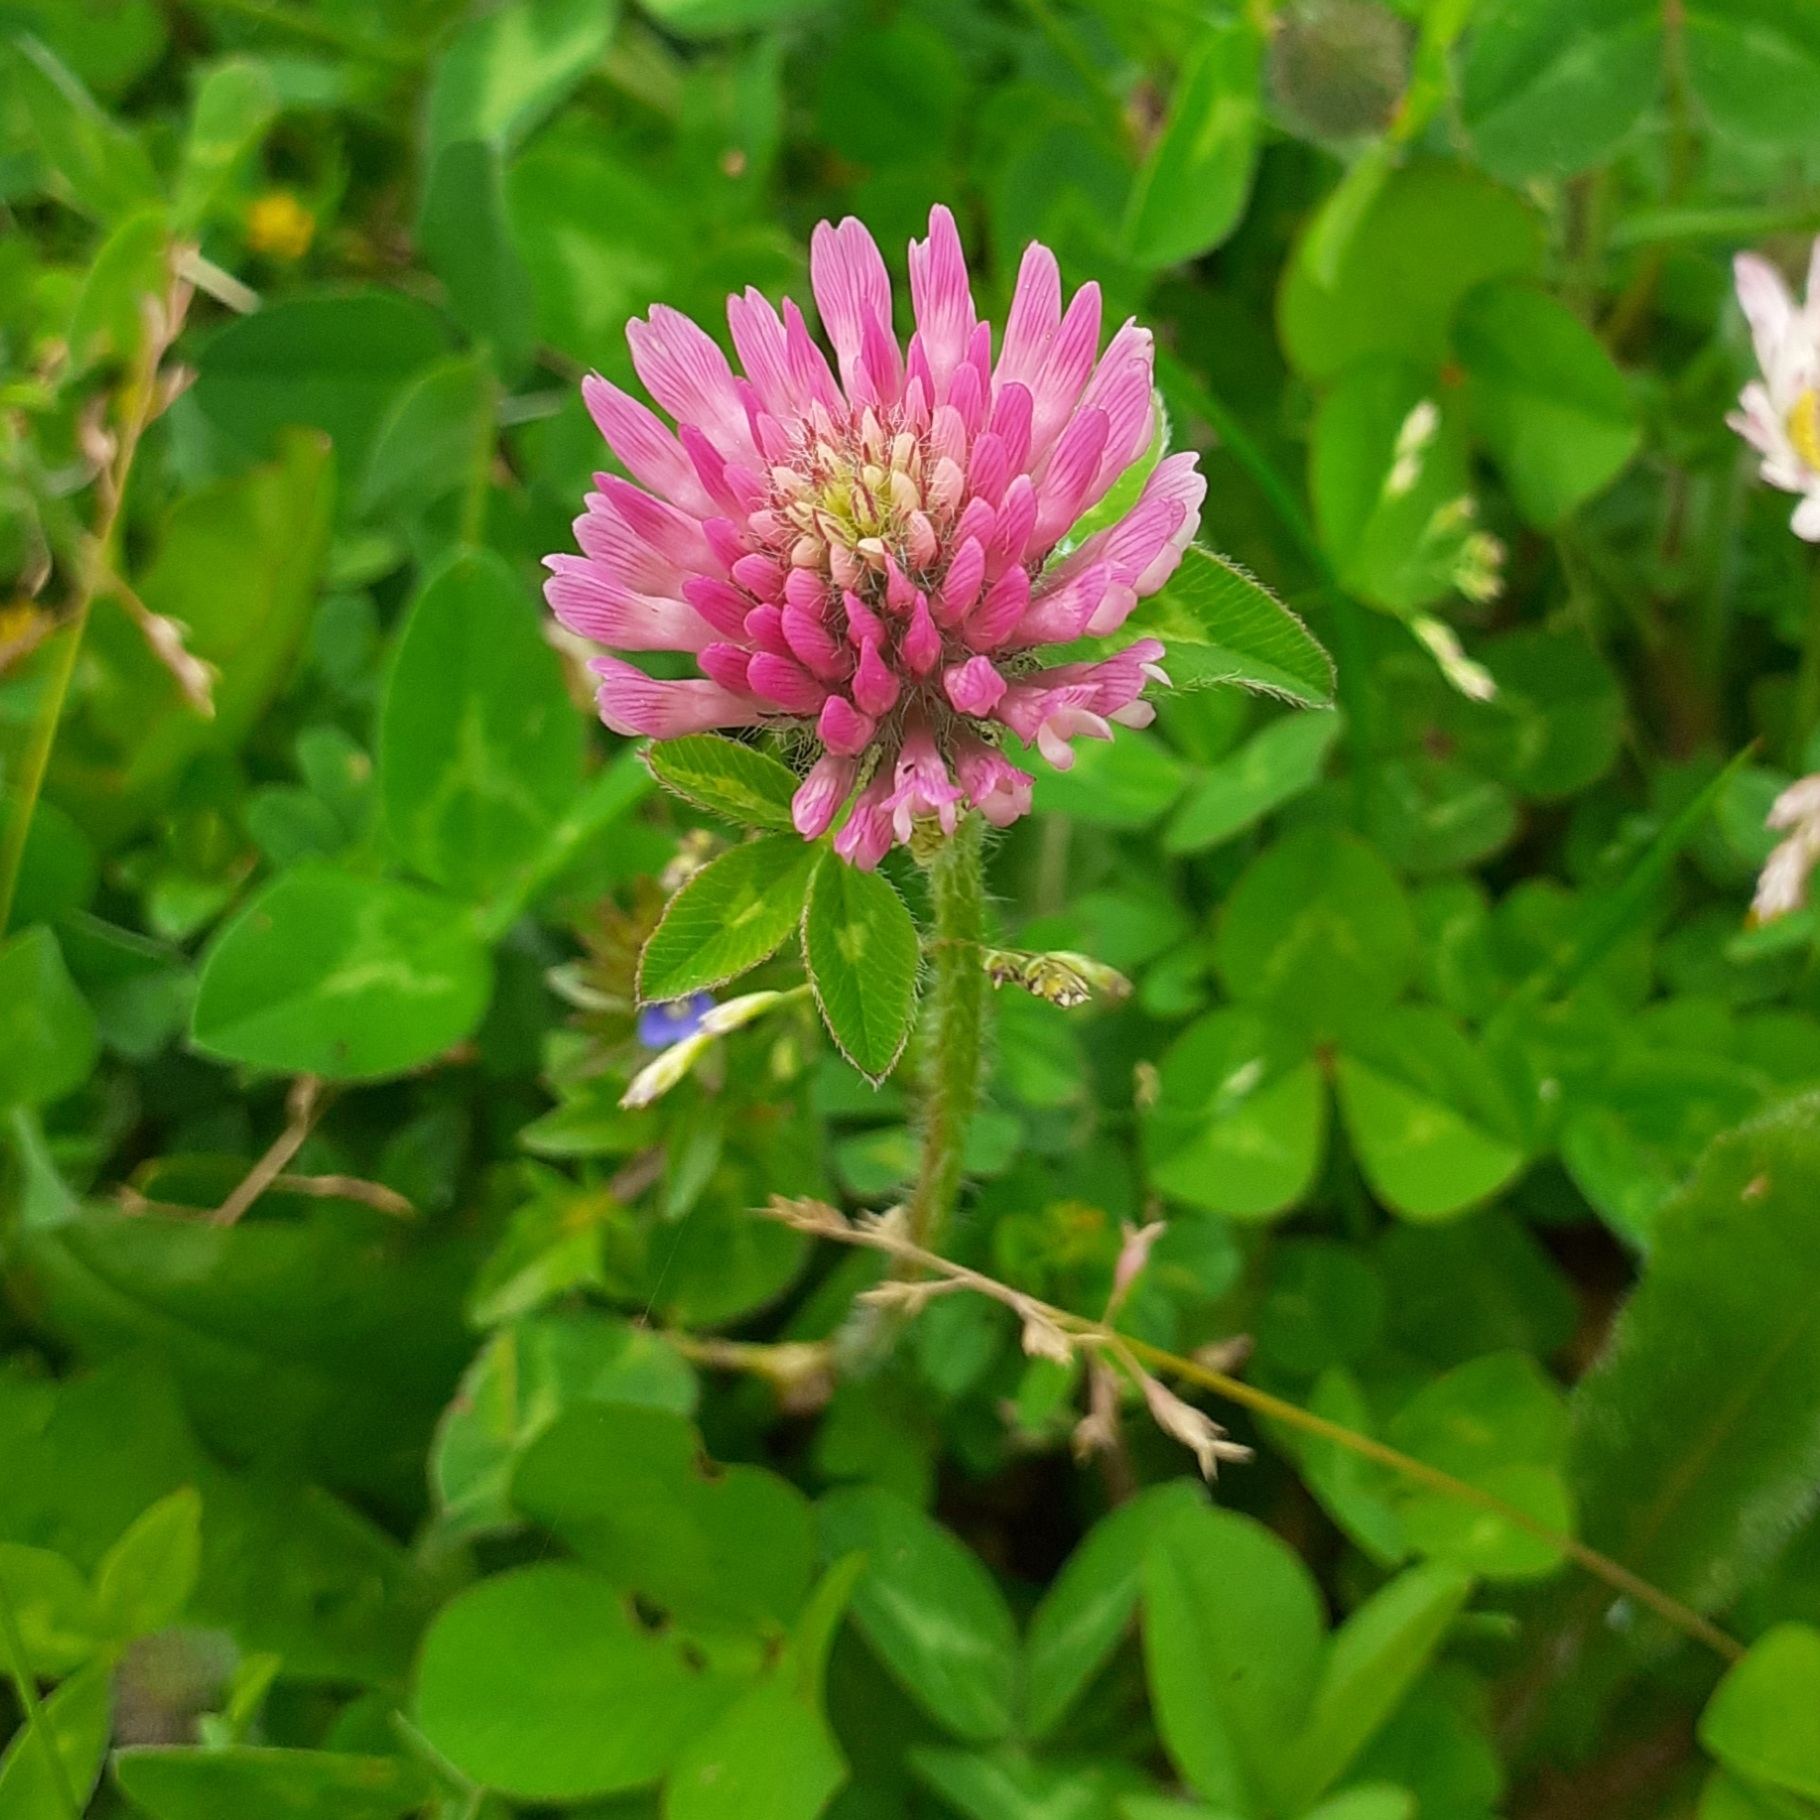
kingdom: Plantae
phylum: Tracheophyta
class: Magnoliopsida
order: Fabales
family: Fabaceae
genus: Trifolium
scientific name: Trifolium pratense
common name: Red clover
